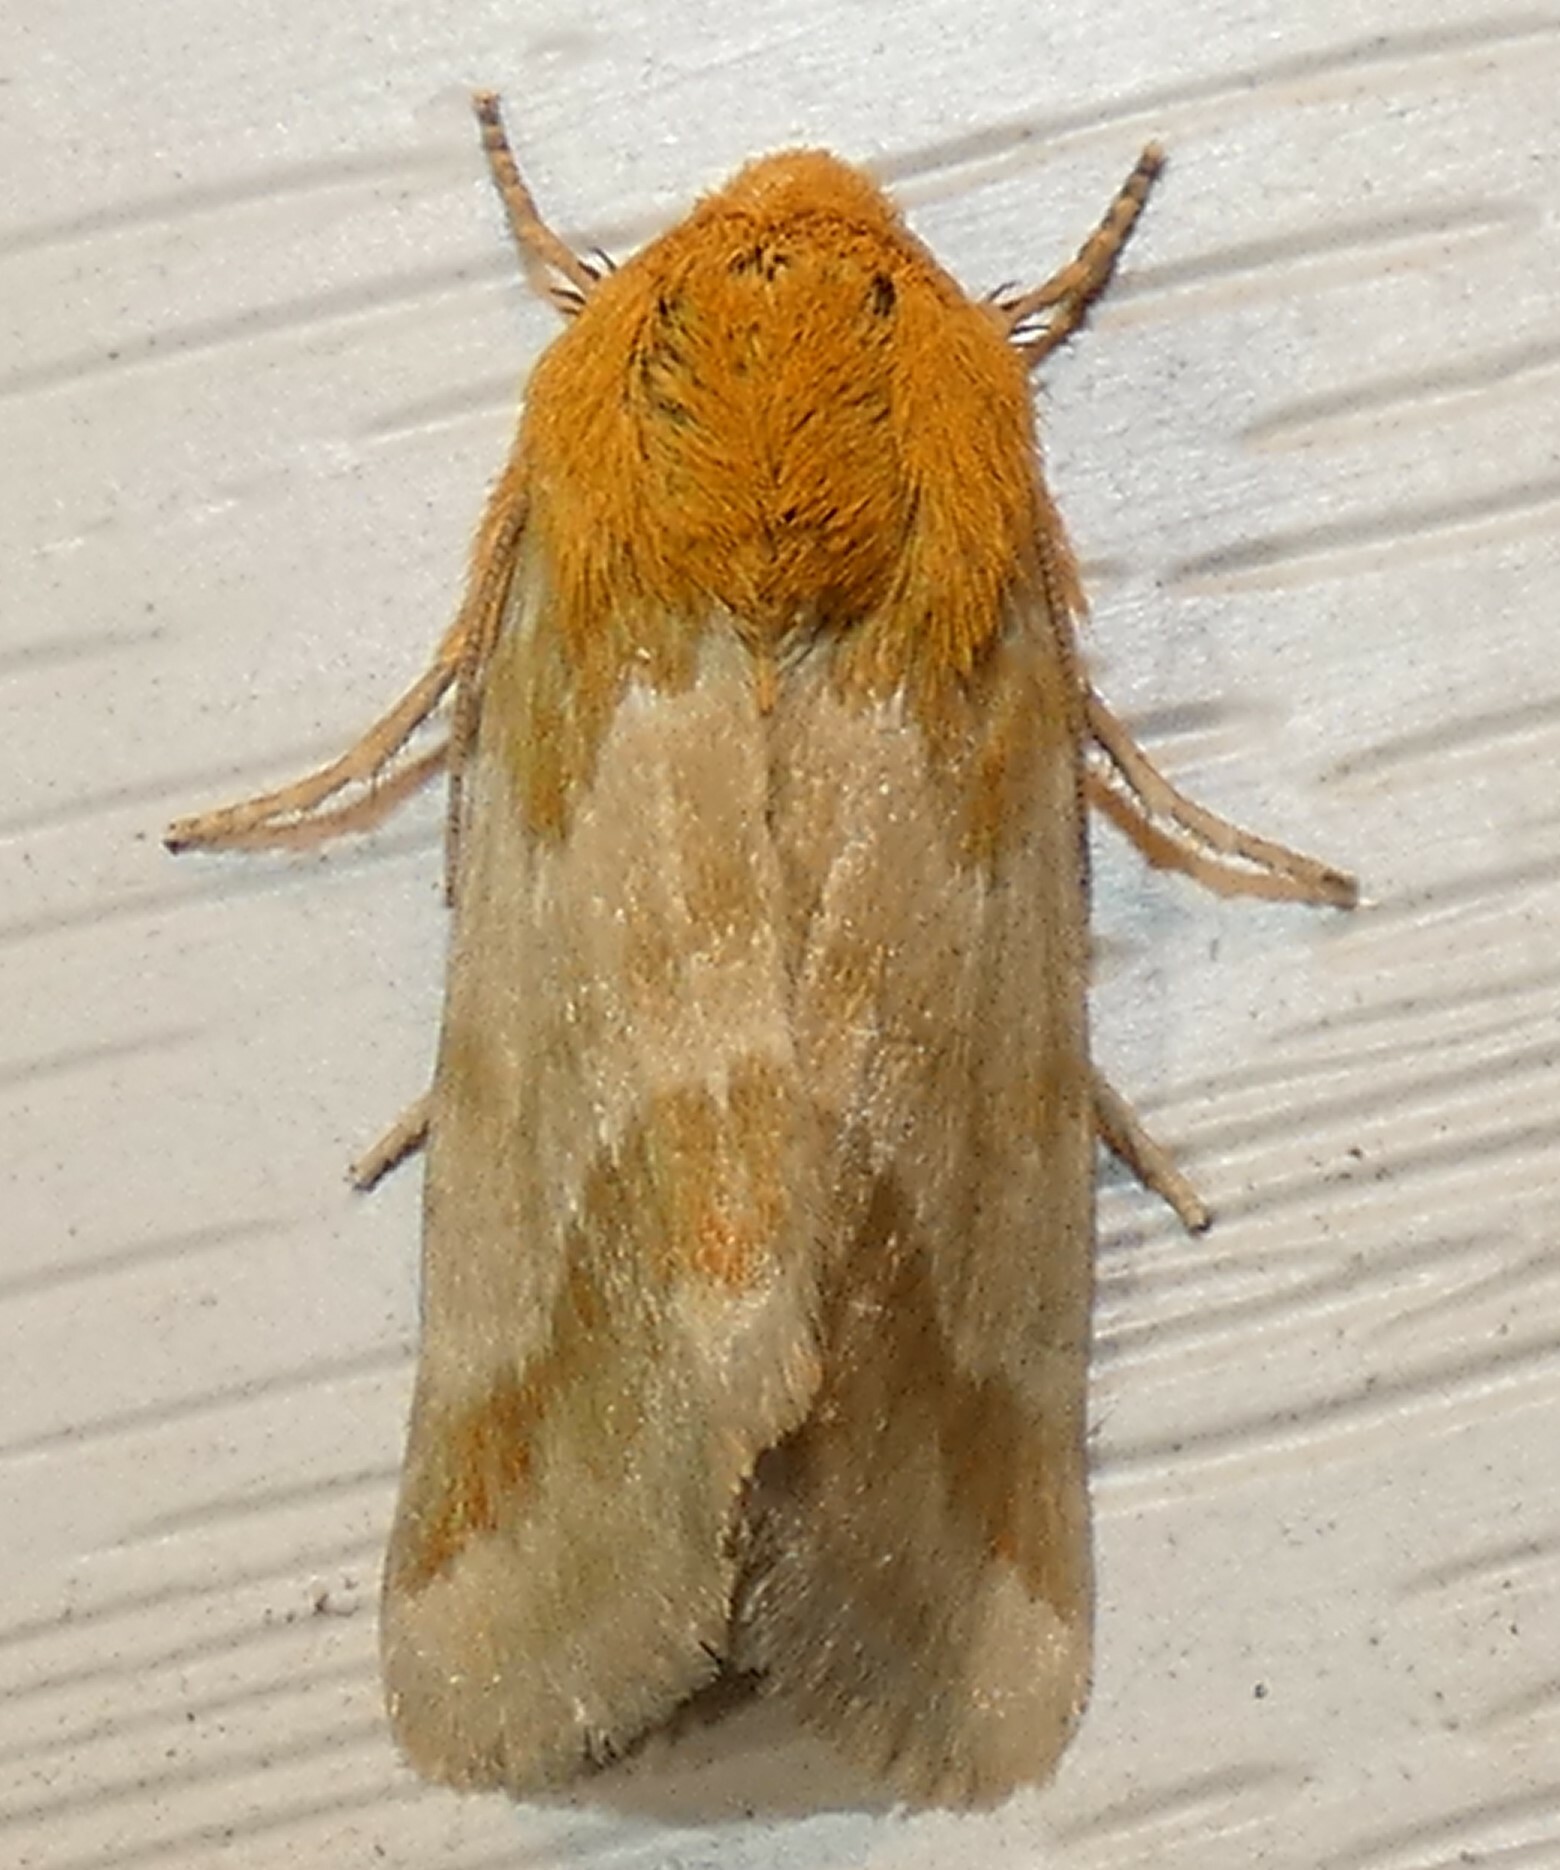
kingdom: Animalia
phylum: Arthropoda
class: Insecta
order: Lepidoptera
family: Noctuidae
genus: Schinia
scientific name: Schinia siren
